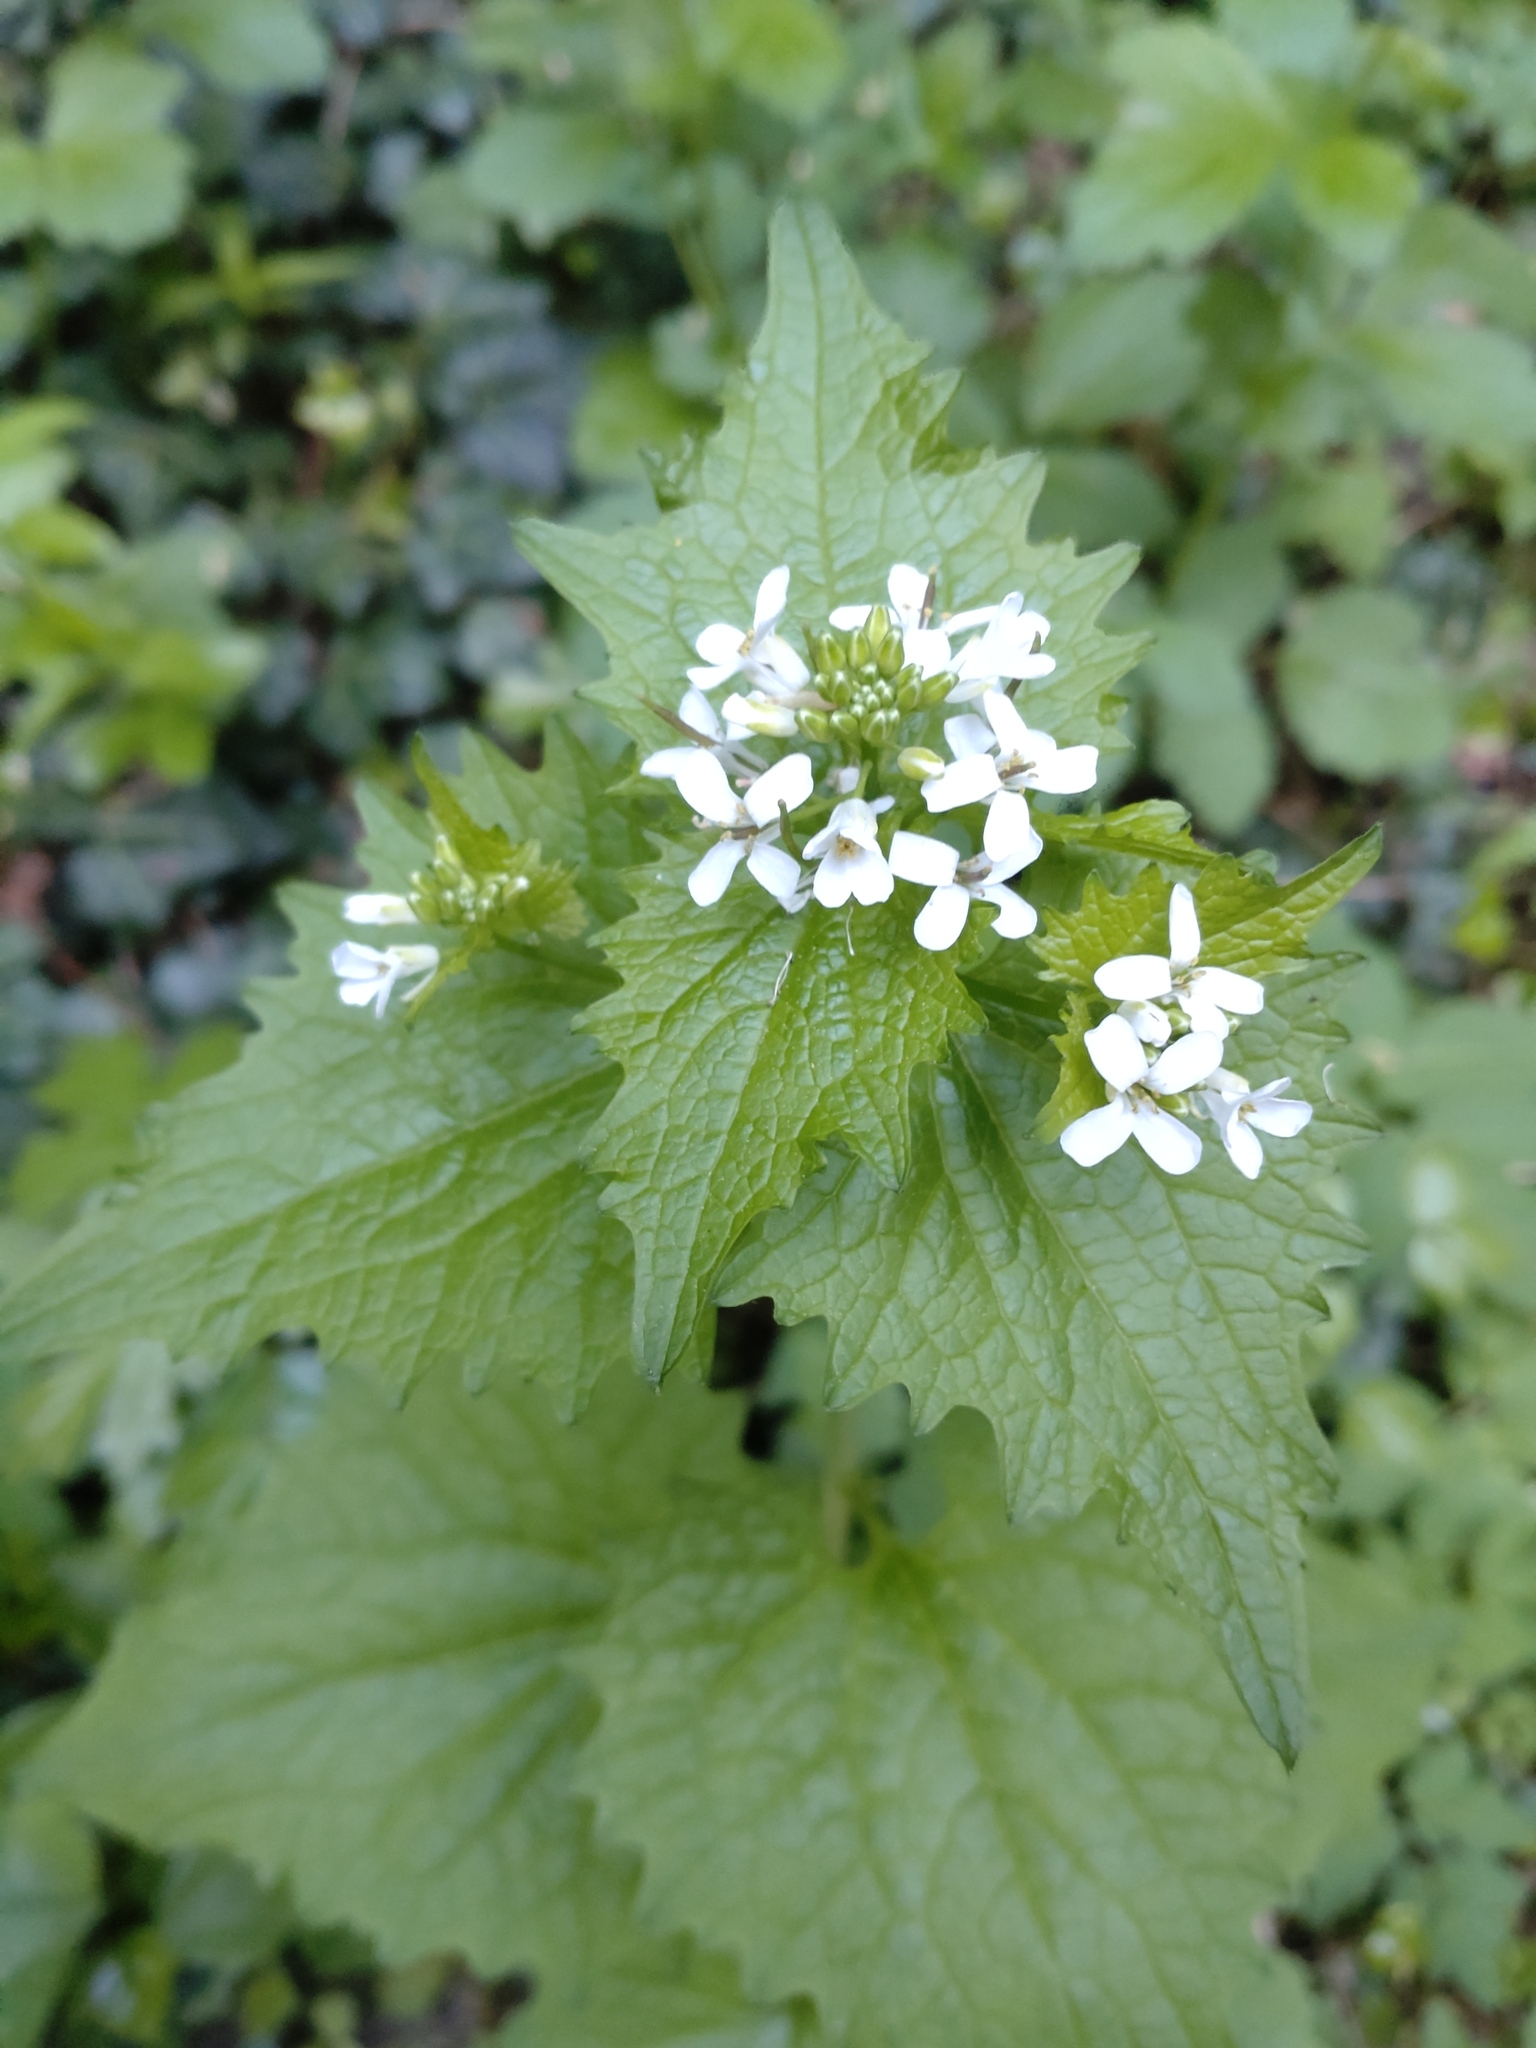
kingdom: Plantae
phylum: Tracheophyta
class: Magnoliopsida
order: Brassicales
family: Brassicaceae
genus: Alliaria
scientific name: Alliaria petiolata
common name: Garlic mustard
